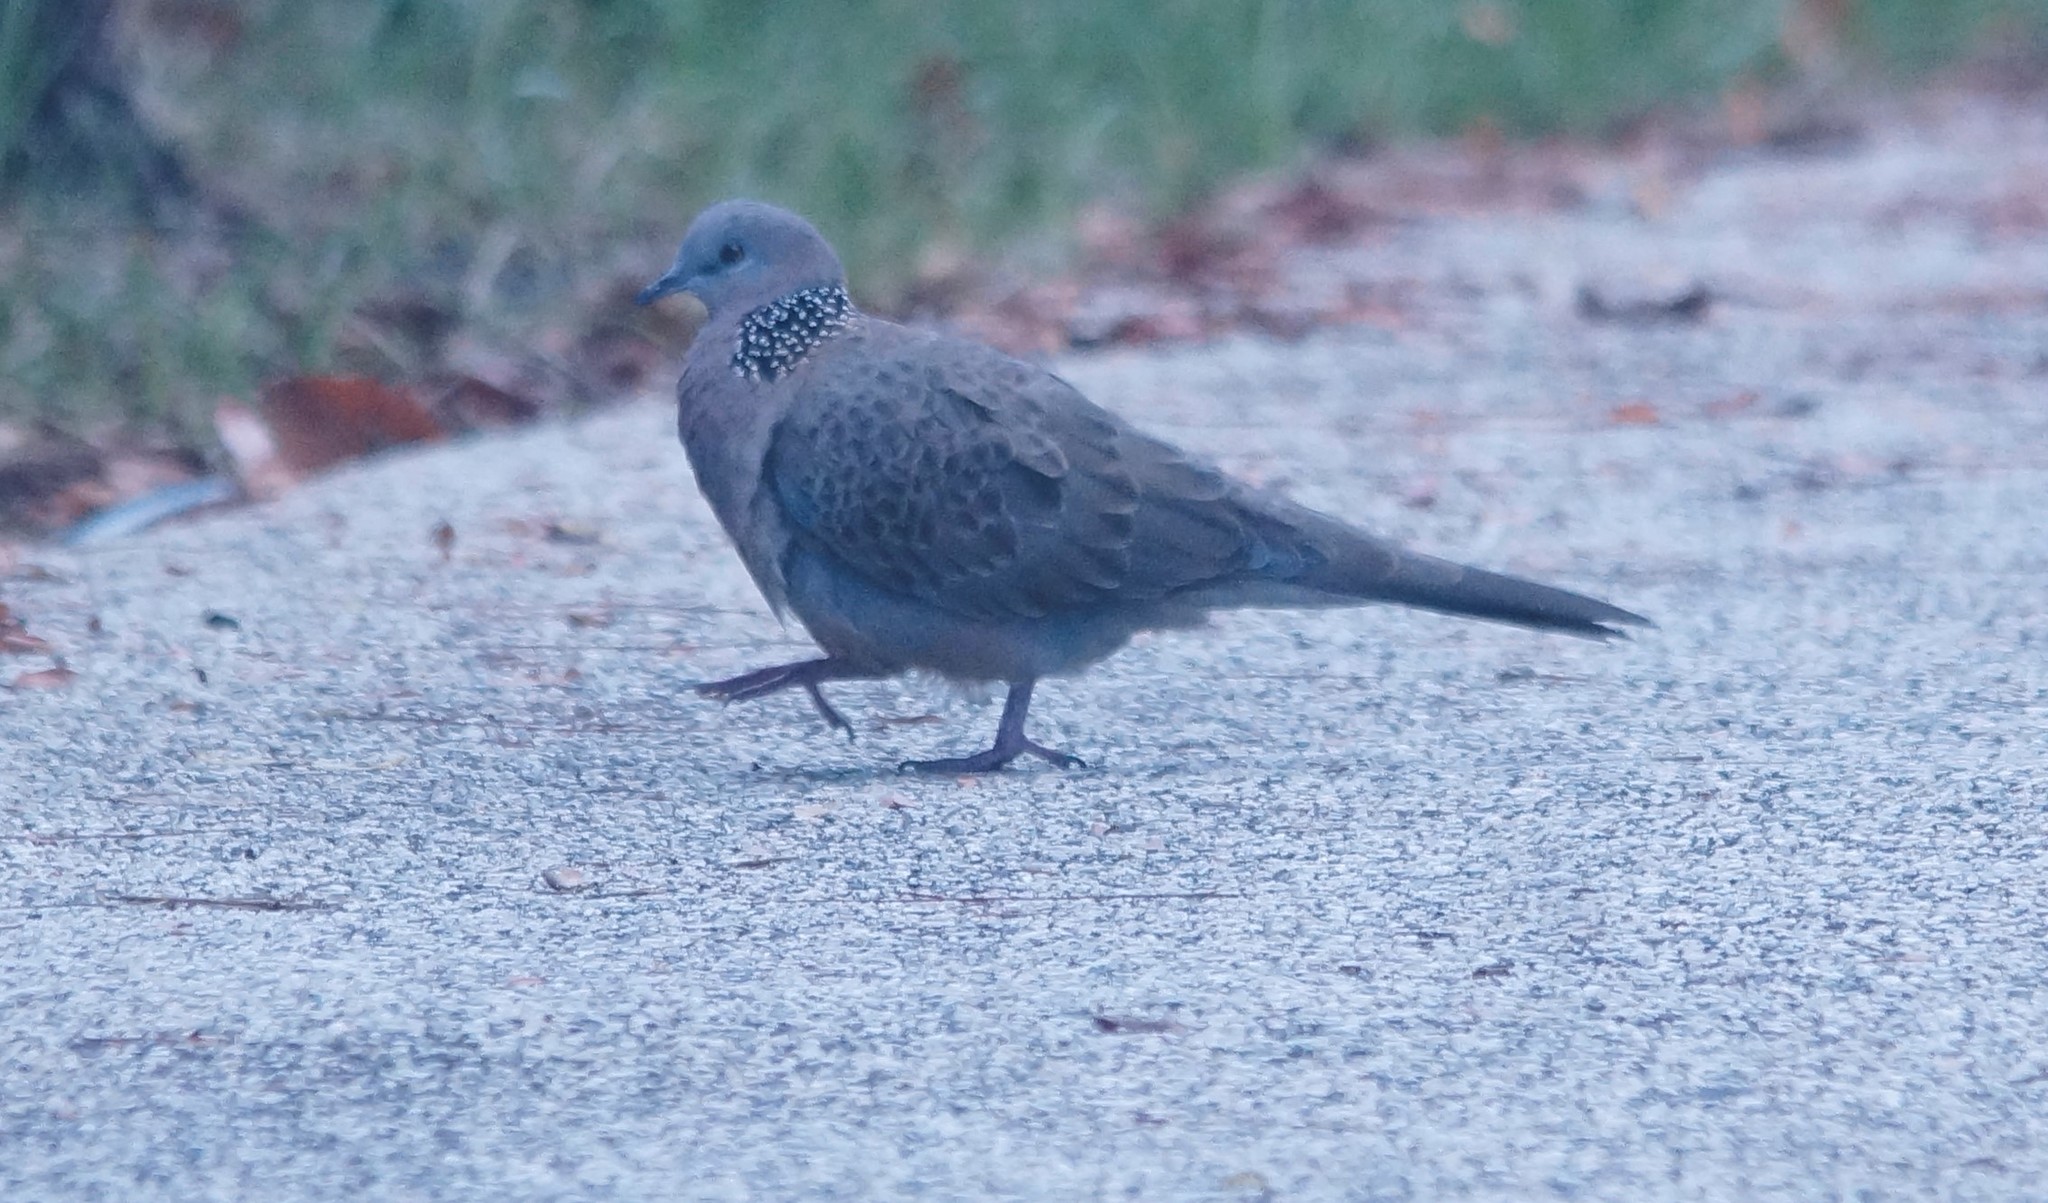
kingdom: Animalia
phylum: Chordata
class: Aves
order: Columbiformes
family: Columbidae
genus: Spilopelia
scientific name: Spilopelia chinensis
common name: Spotted dove
